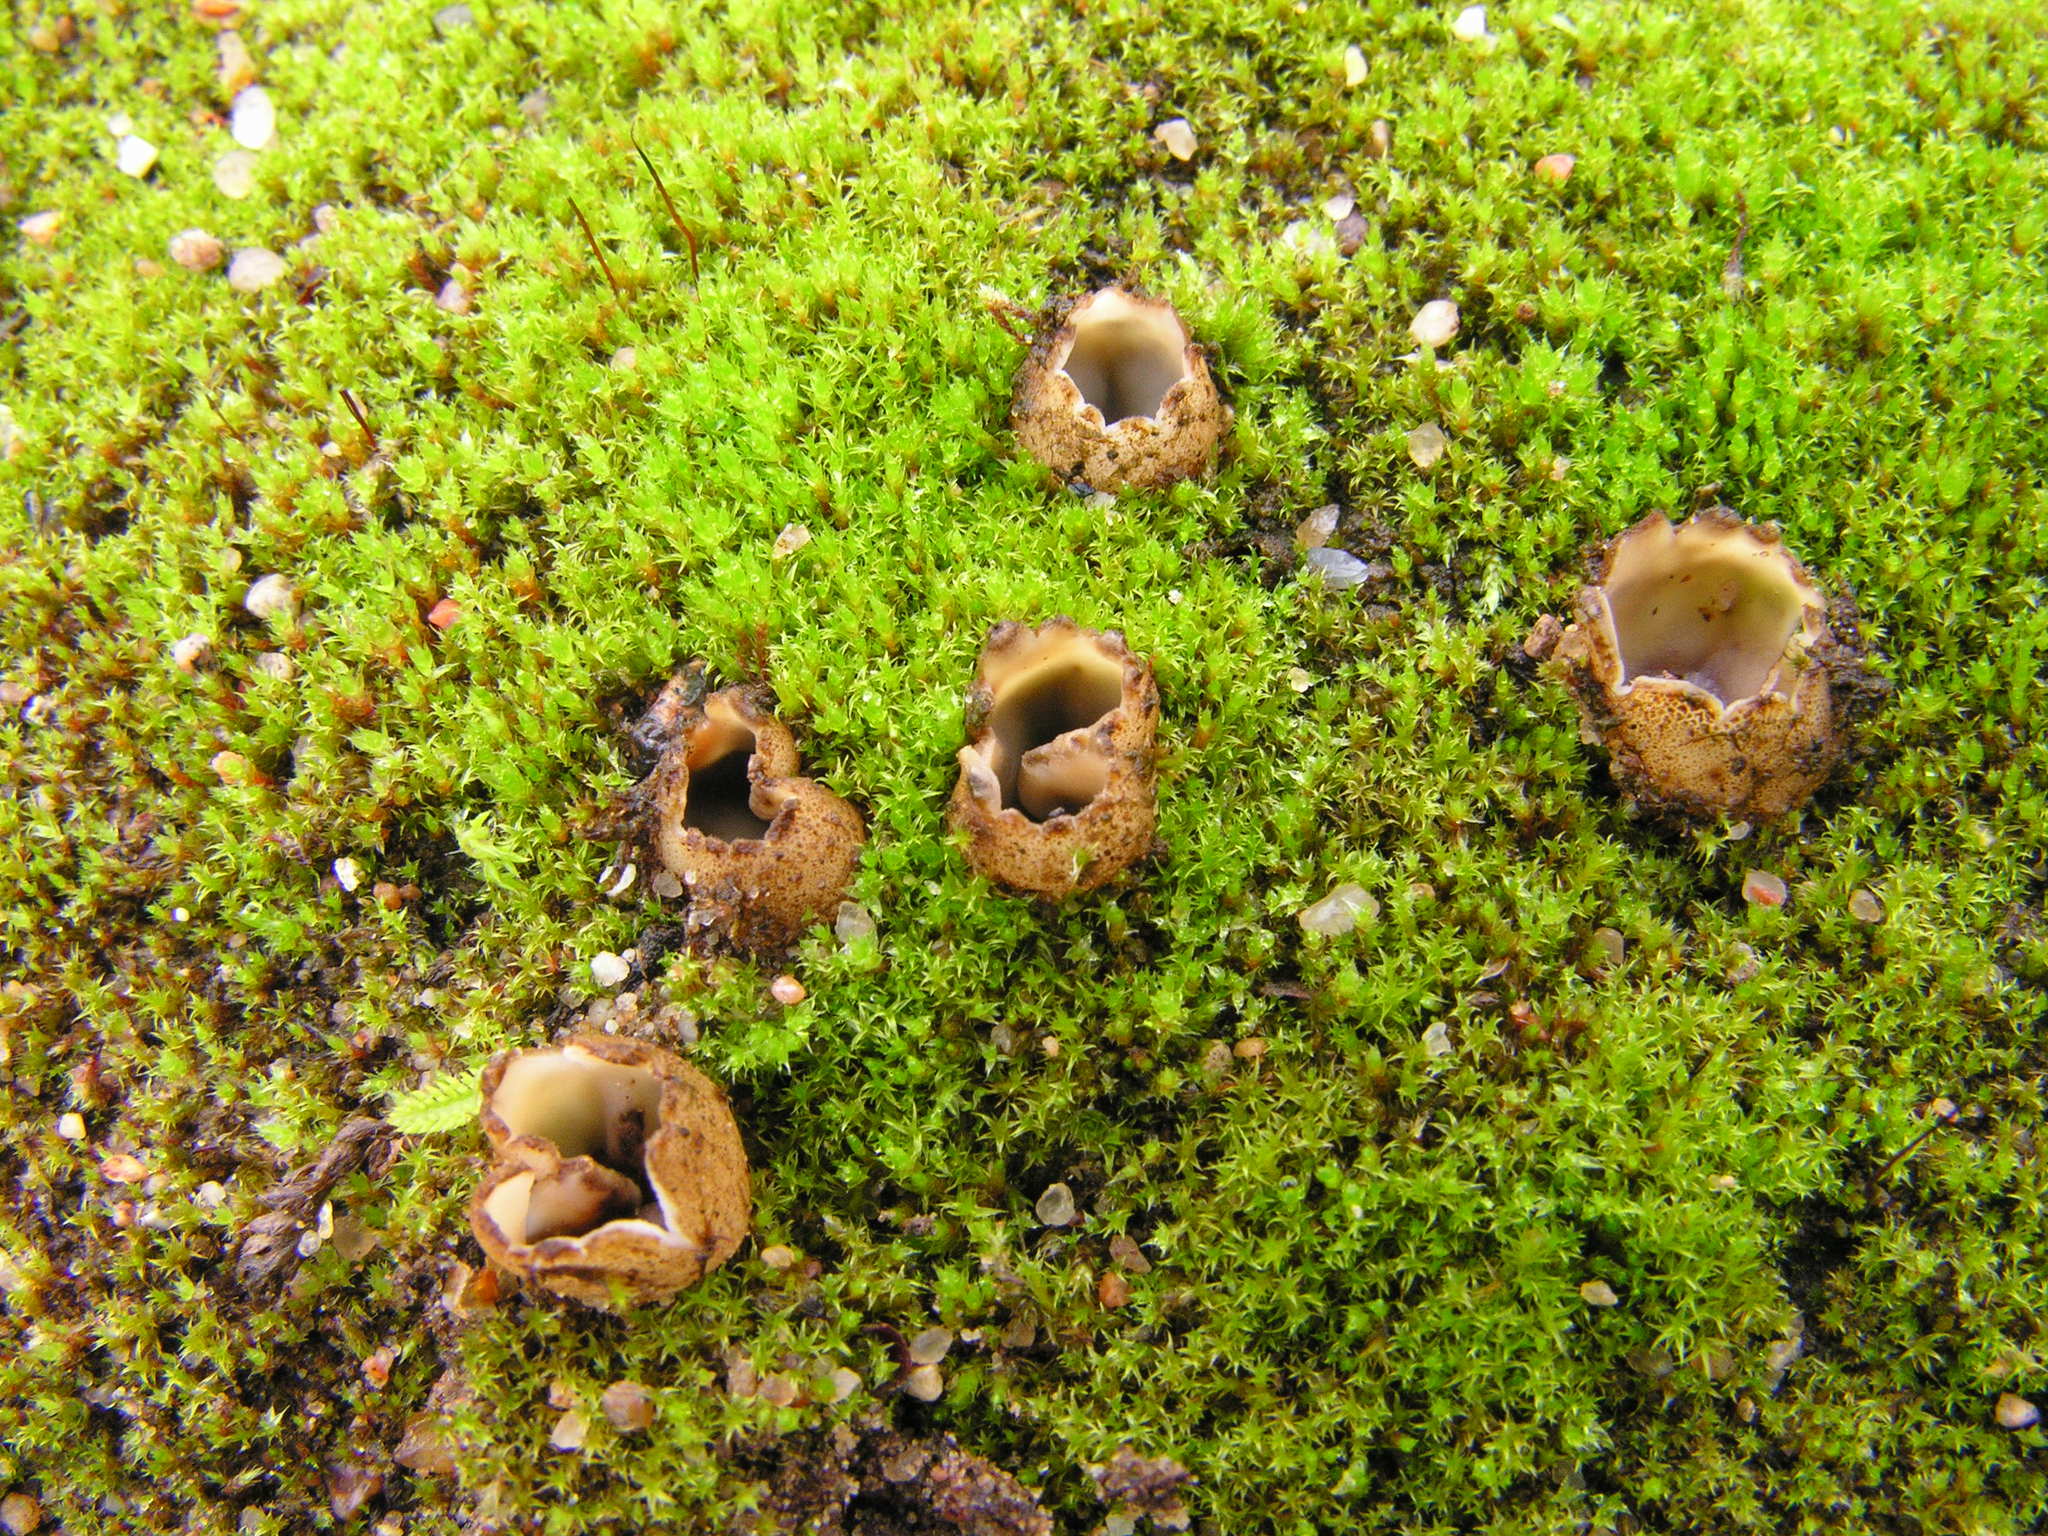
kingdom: Fungi
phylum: Ascomycota
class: Pezizomycetes
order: Pezizales
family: Pyronemataceae
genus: Geopora
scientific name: Geopora arenosa
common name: Mountain cup
